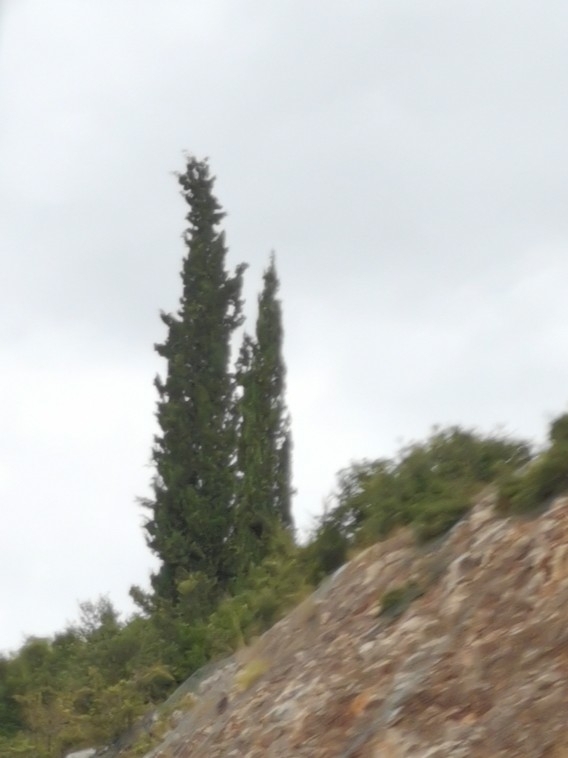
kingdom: Plantae
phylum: Tracheophyta
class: Pinopsida
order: Pinales
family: Cupressaceae
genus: Cupressus
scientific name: Cupressus sempervirens
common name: Italian cypress
